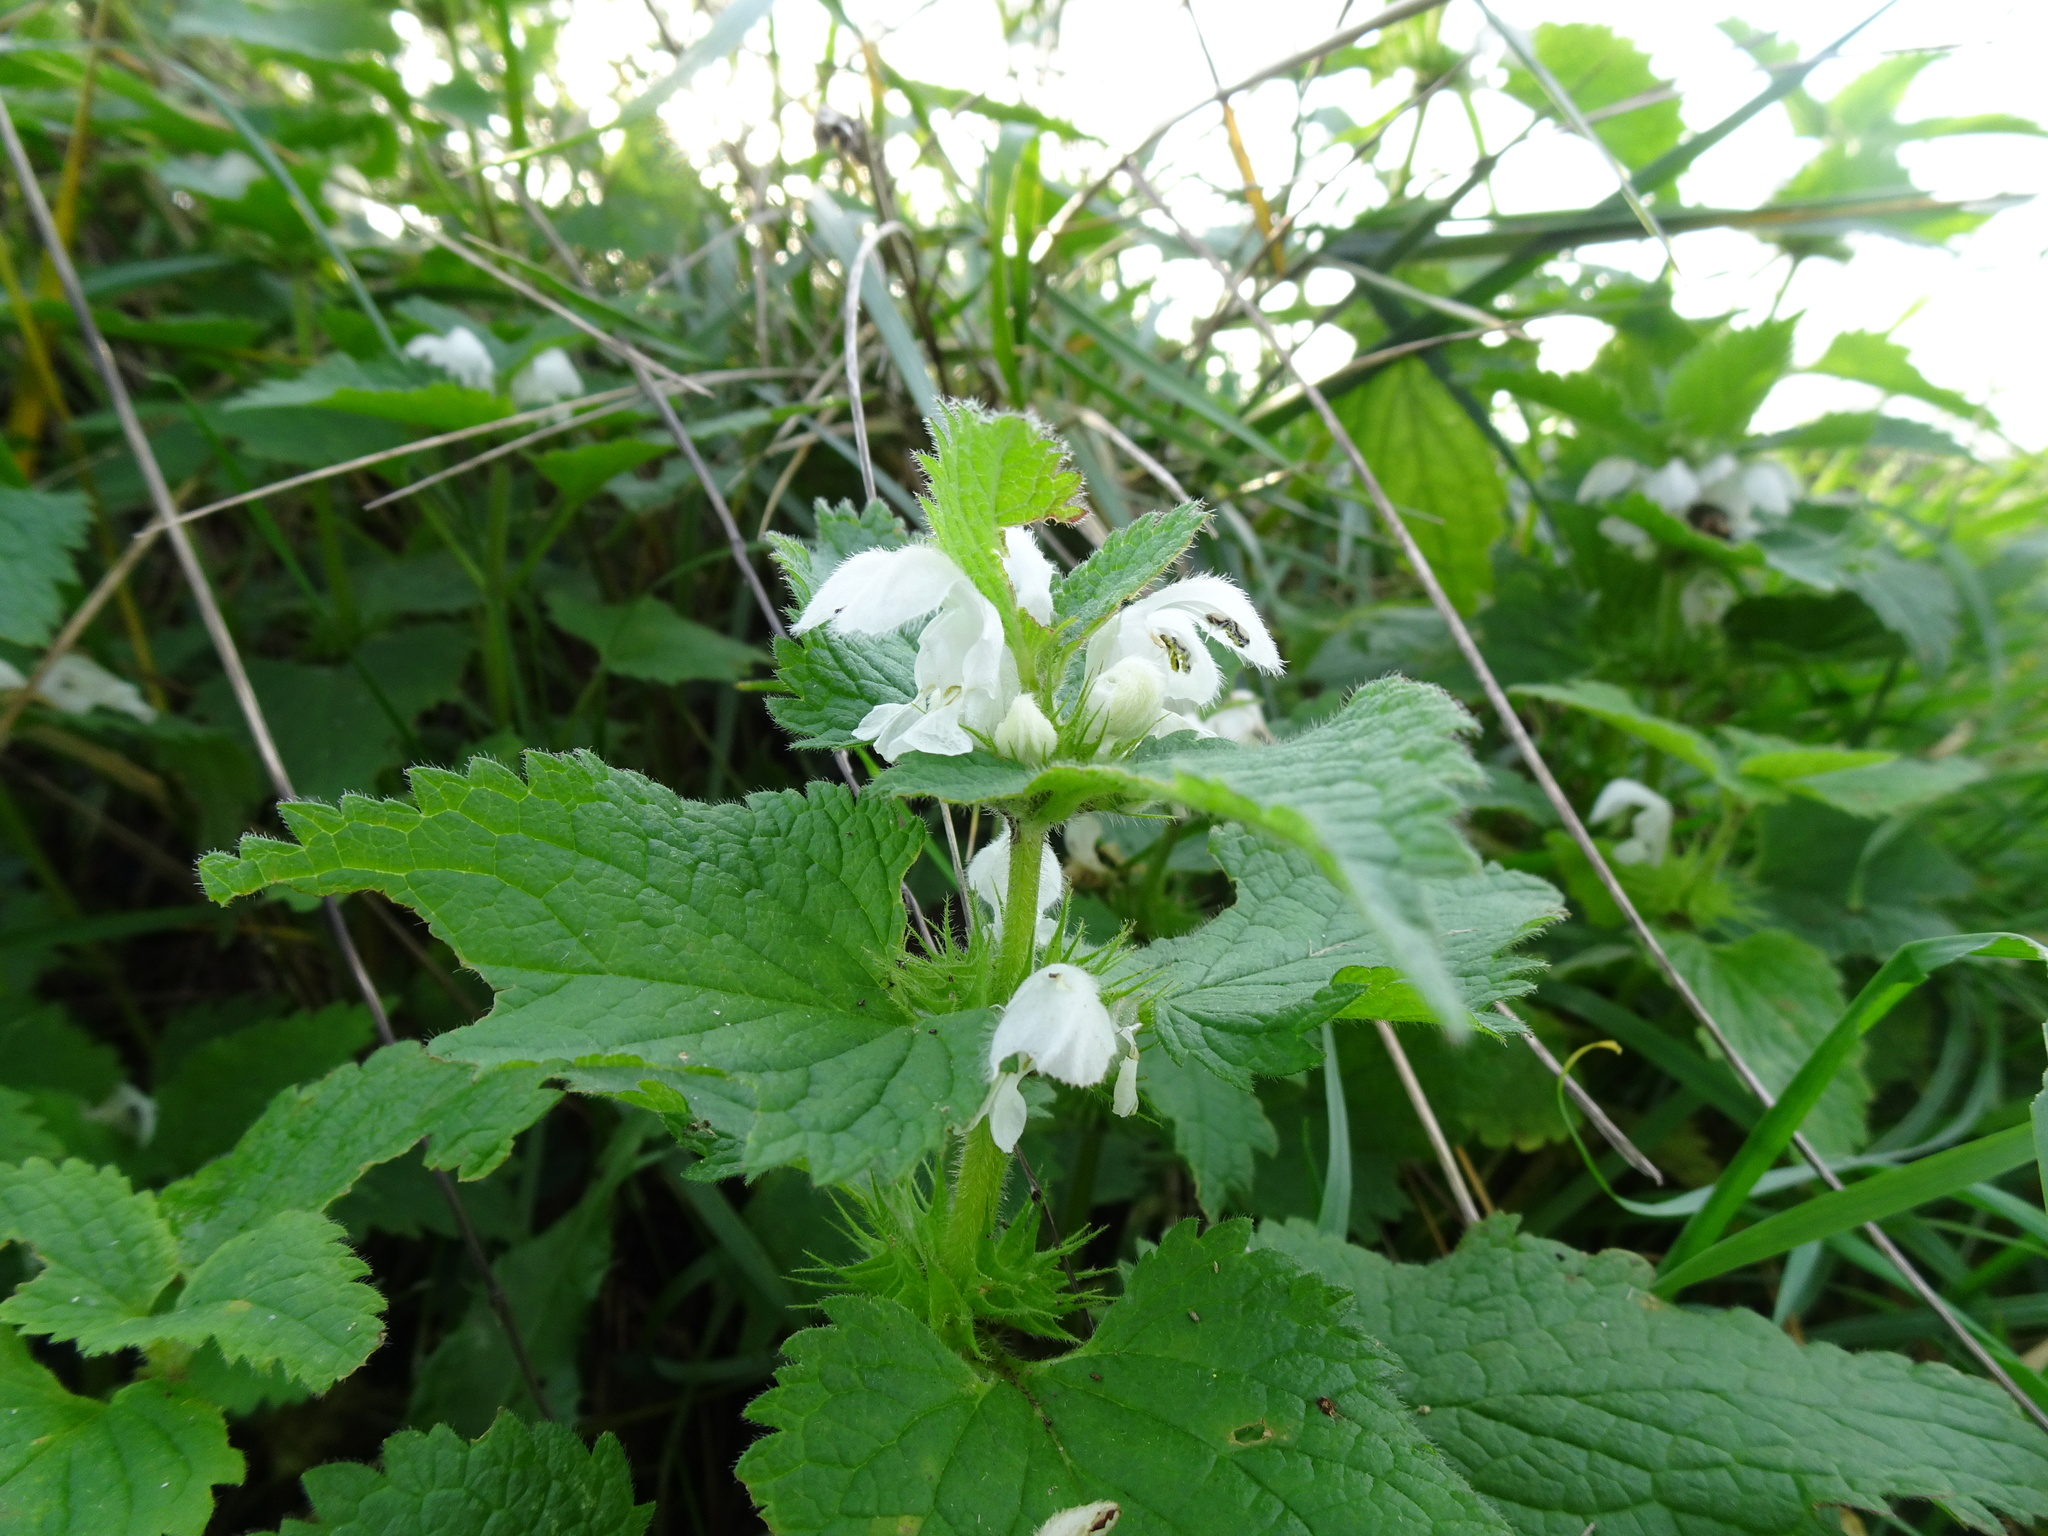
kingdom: Plantae
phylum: Tracheophyta
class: Magnoliopsida
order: Lamiales
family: Lamiaceae
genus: Lamium
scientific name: Lamium album
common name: White dead-nettle
